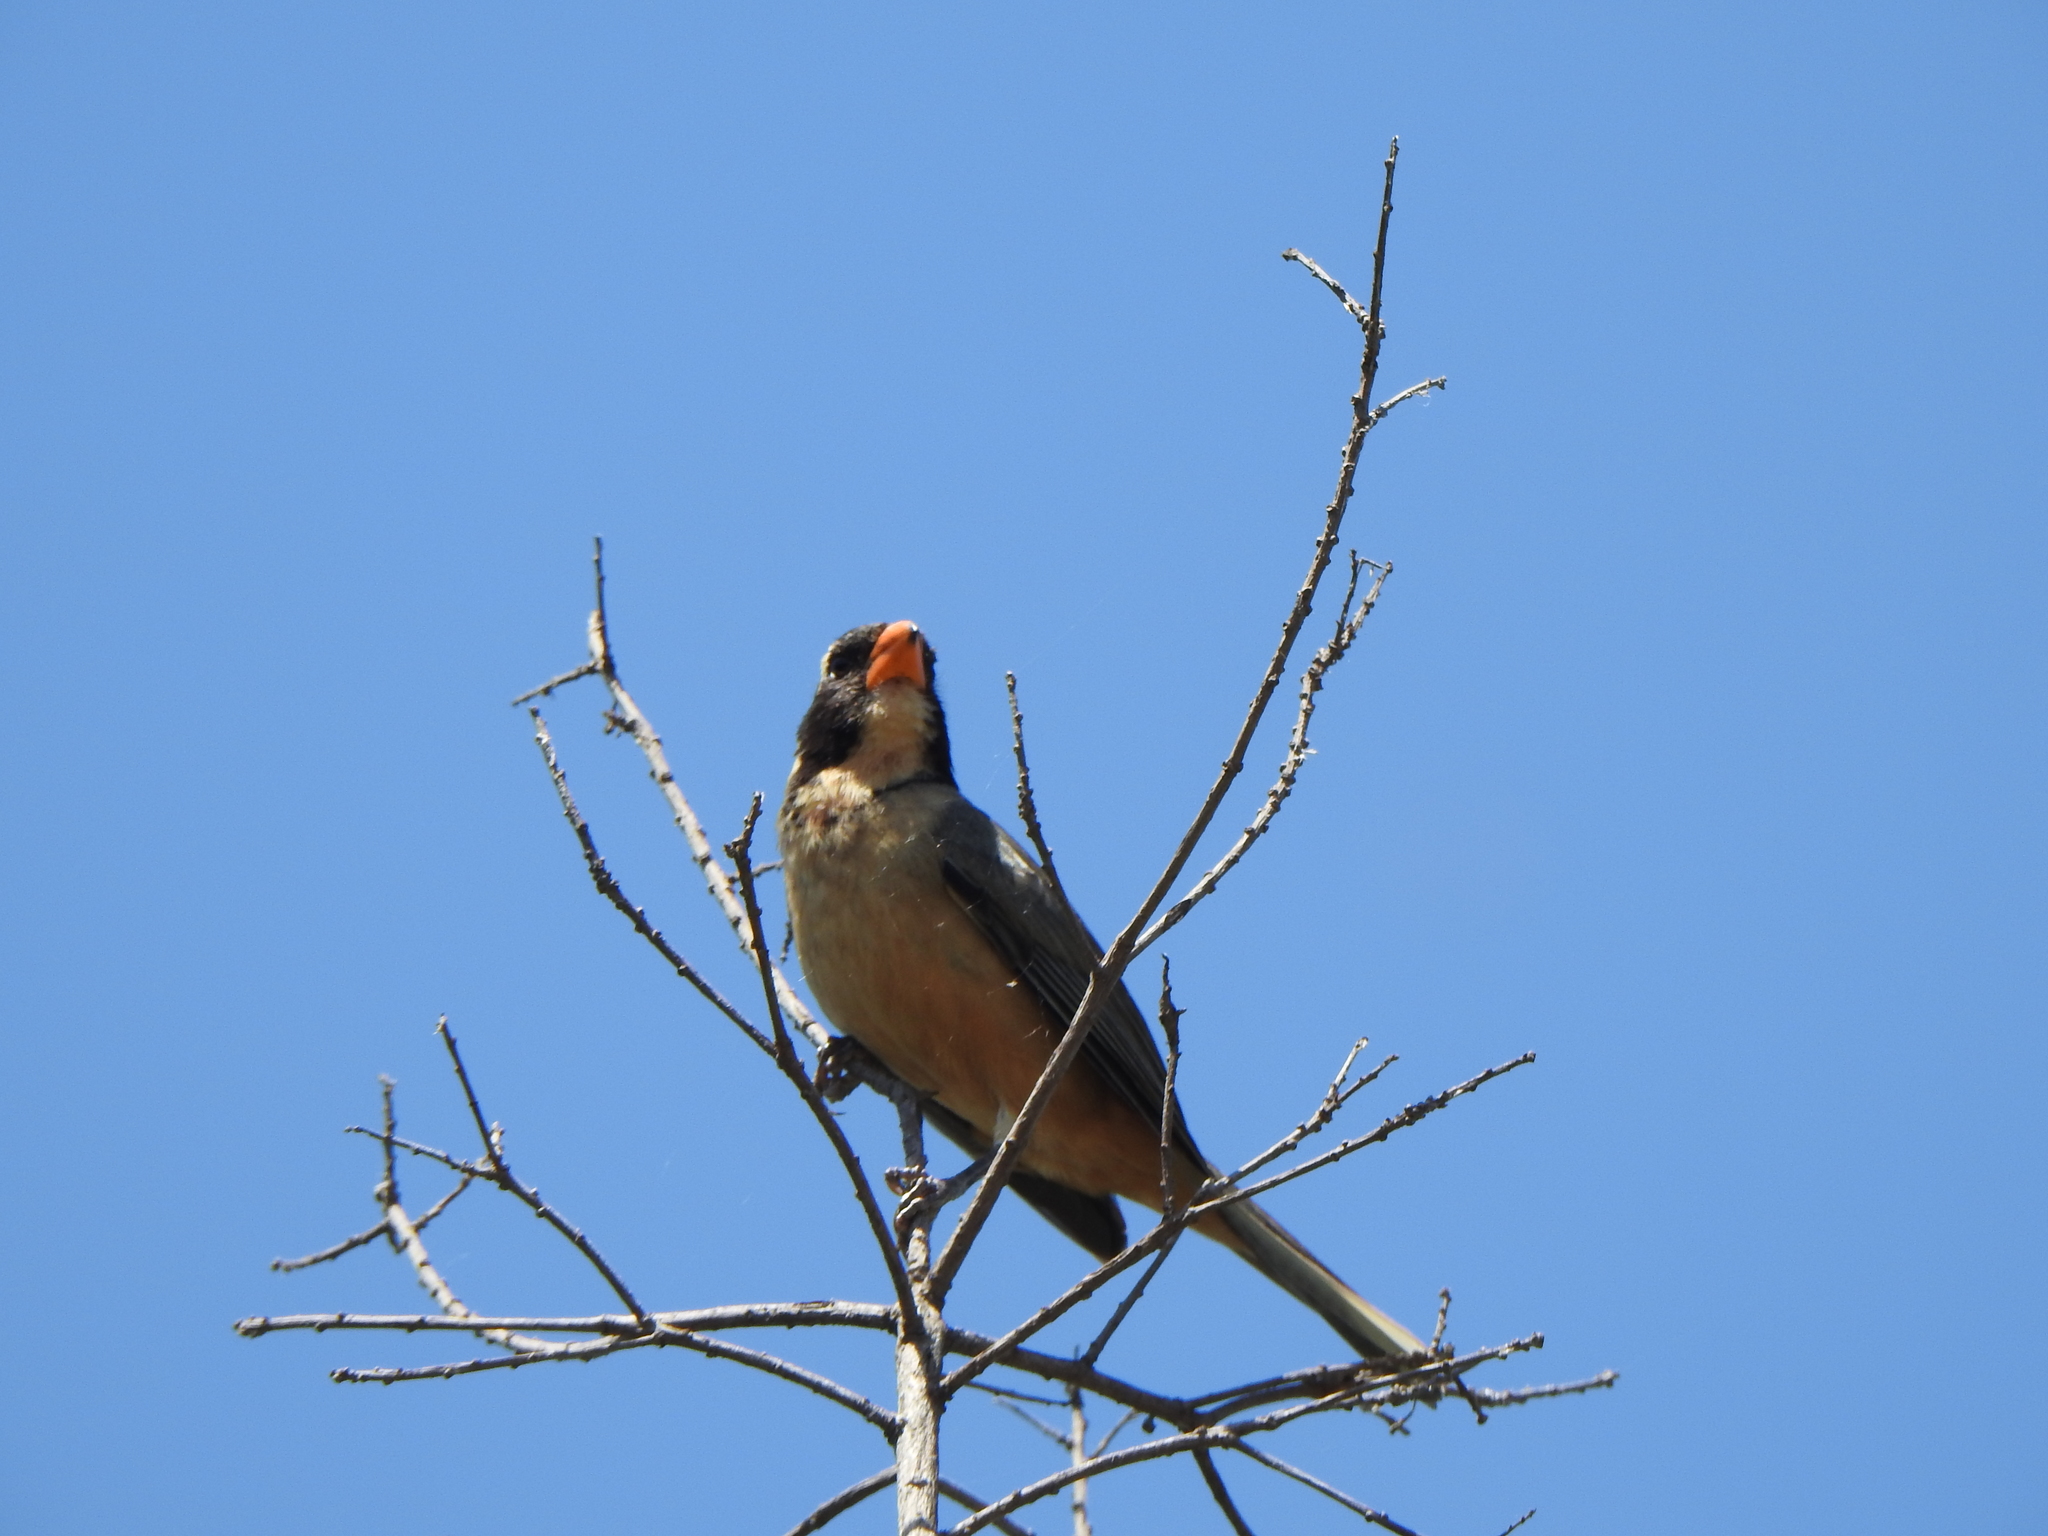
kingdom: Animalia
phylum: Chordata
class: Aves
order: Passeriformes
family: Thraupidae
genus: Saltator
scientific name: Saltator aurantiirostris
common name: Golden-billed saltator
